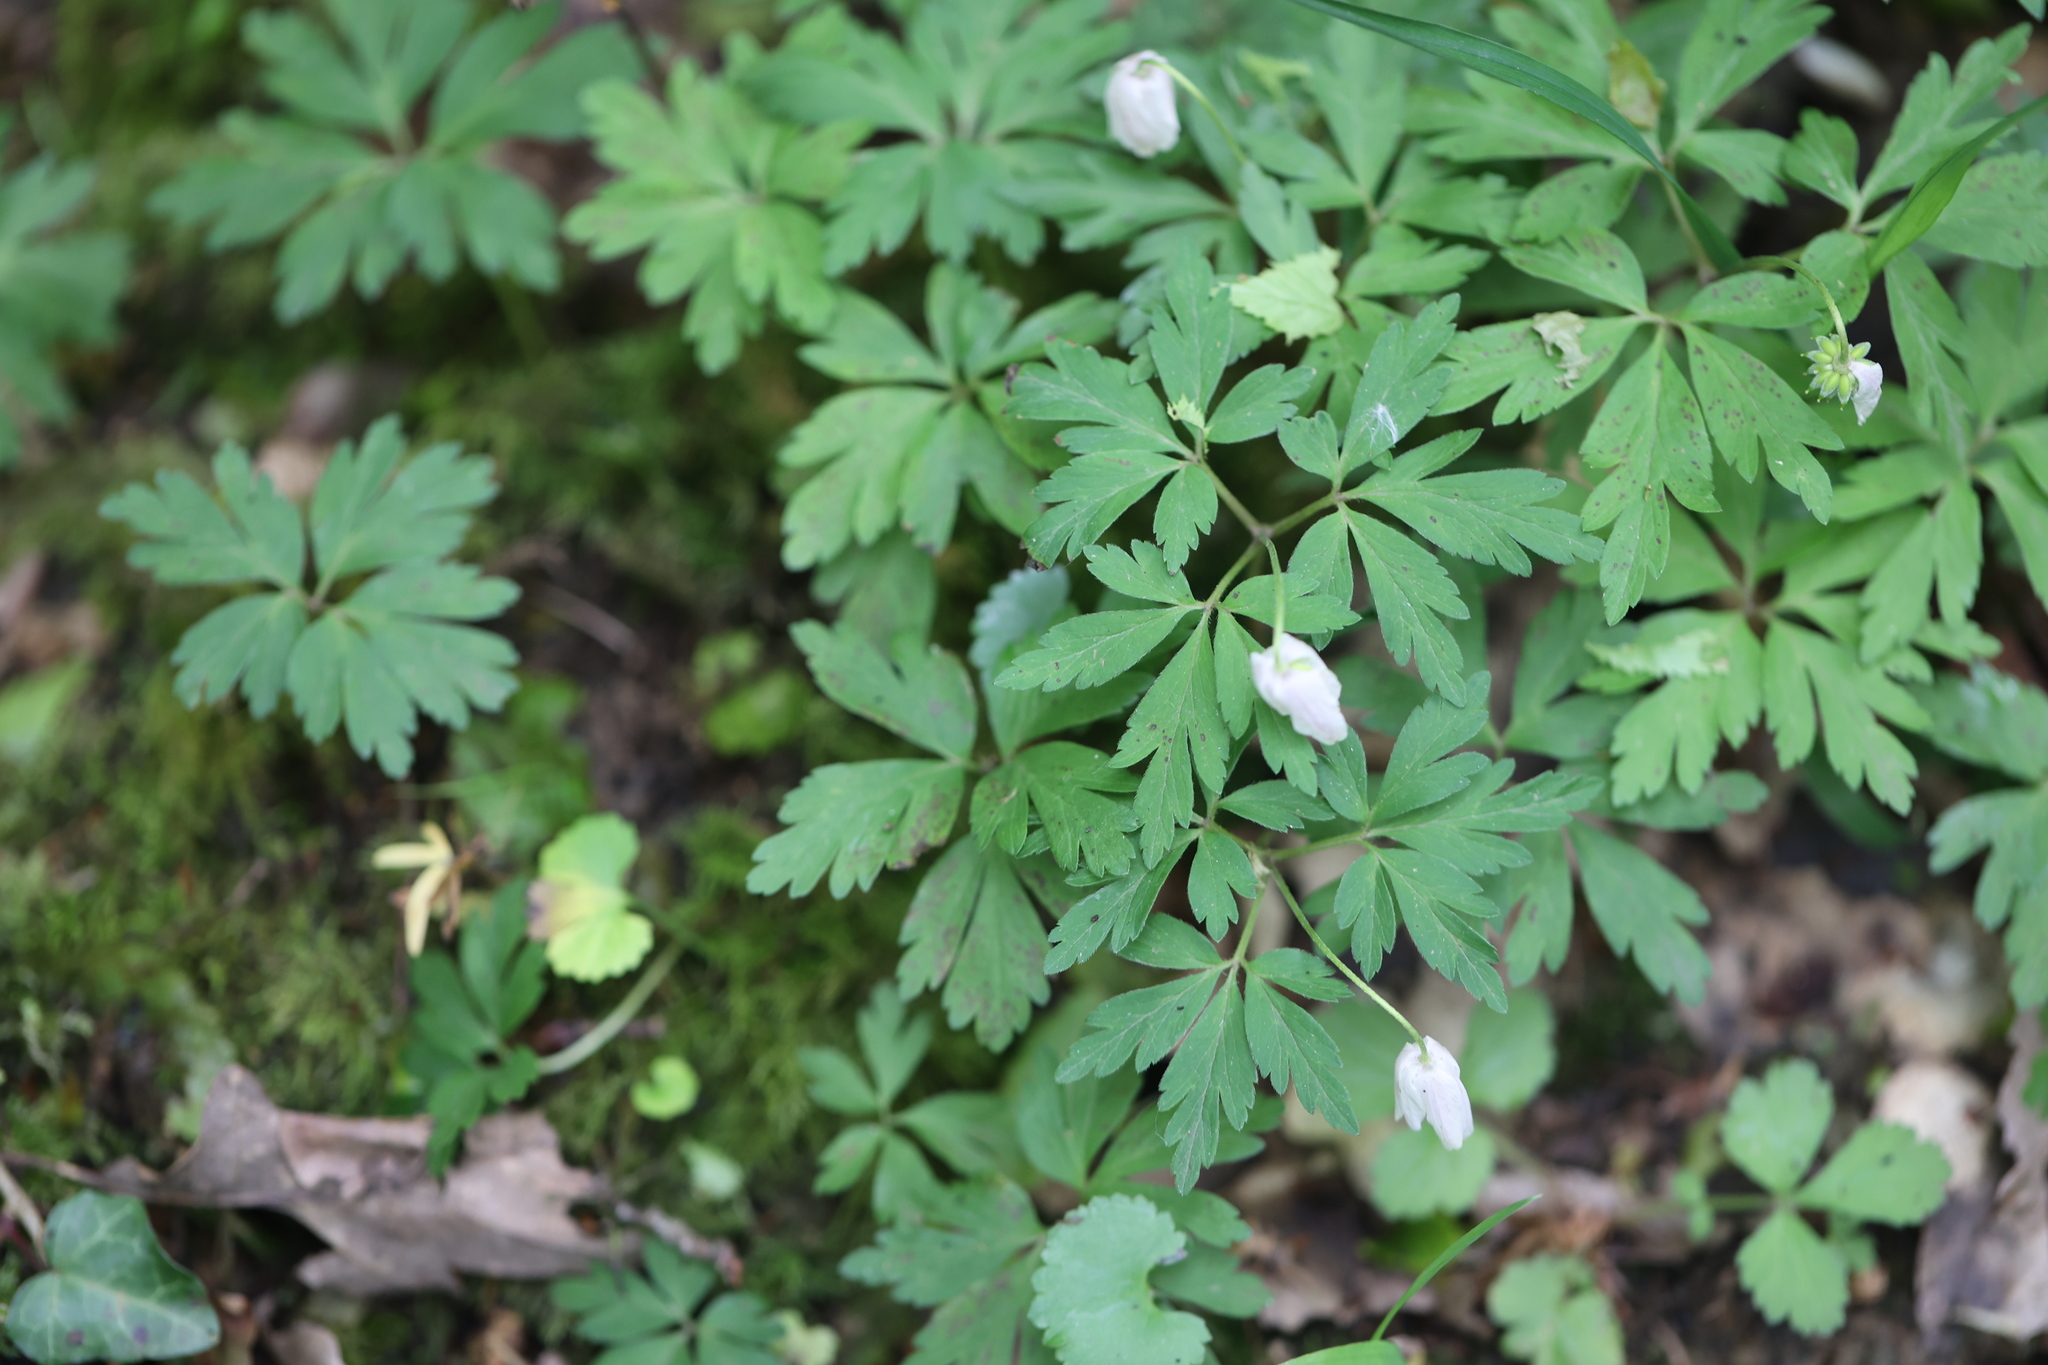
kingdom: Plantae
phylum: Tracheophyta
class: Magnoliopsida
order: Ranunculales
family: Ranunculaceae
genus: Anemone
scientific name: Anemone nemorosa
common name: Wood anemone
